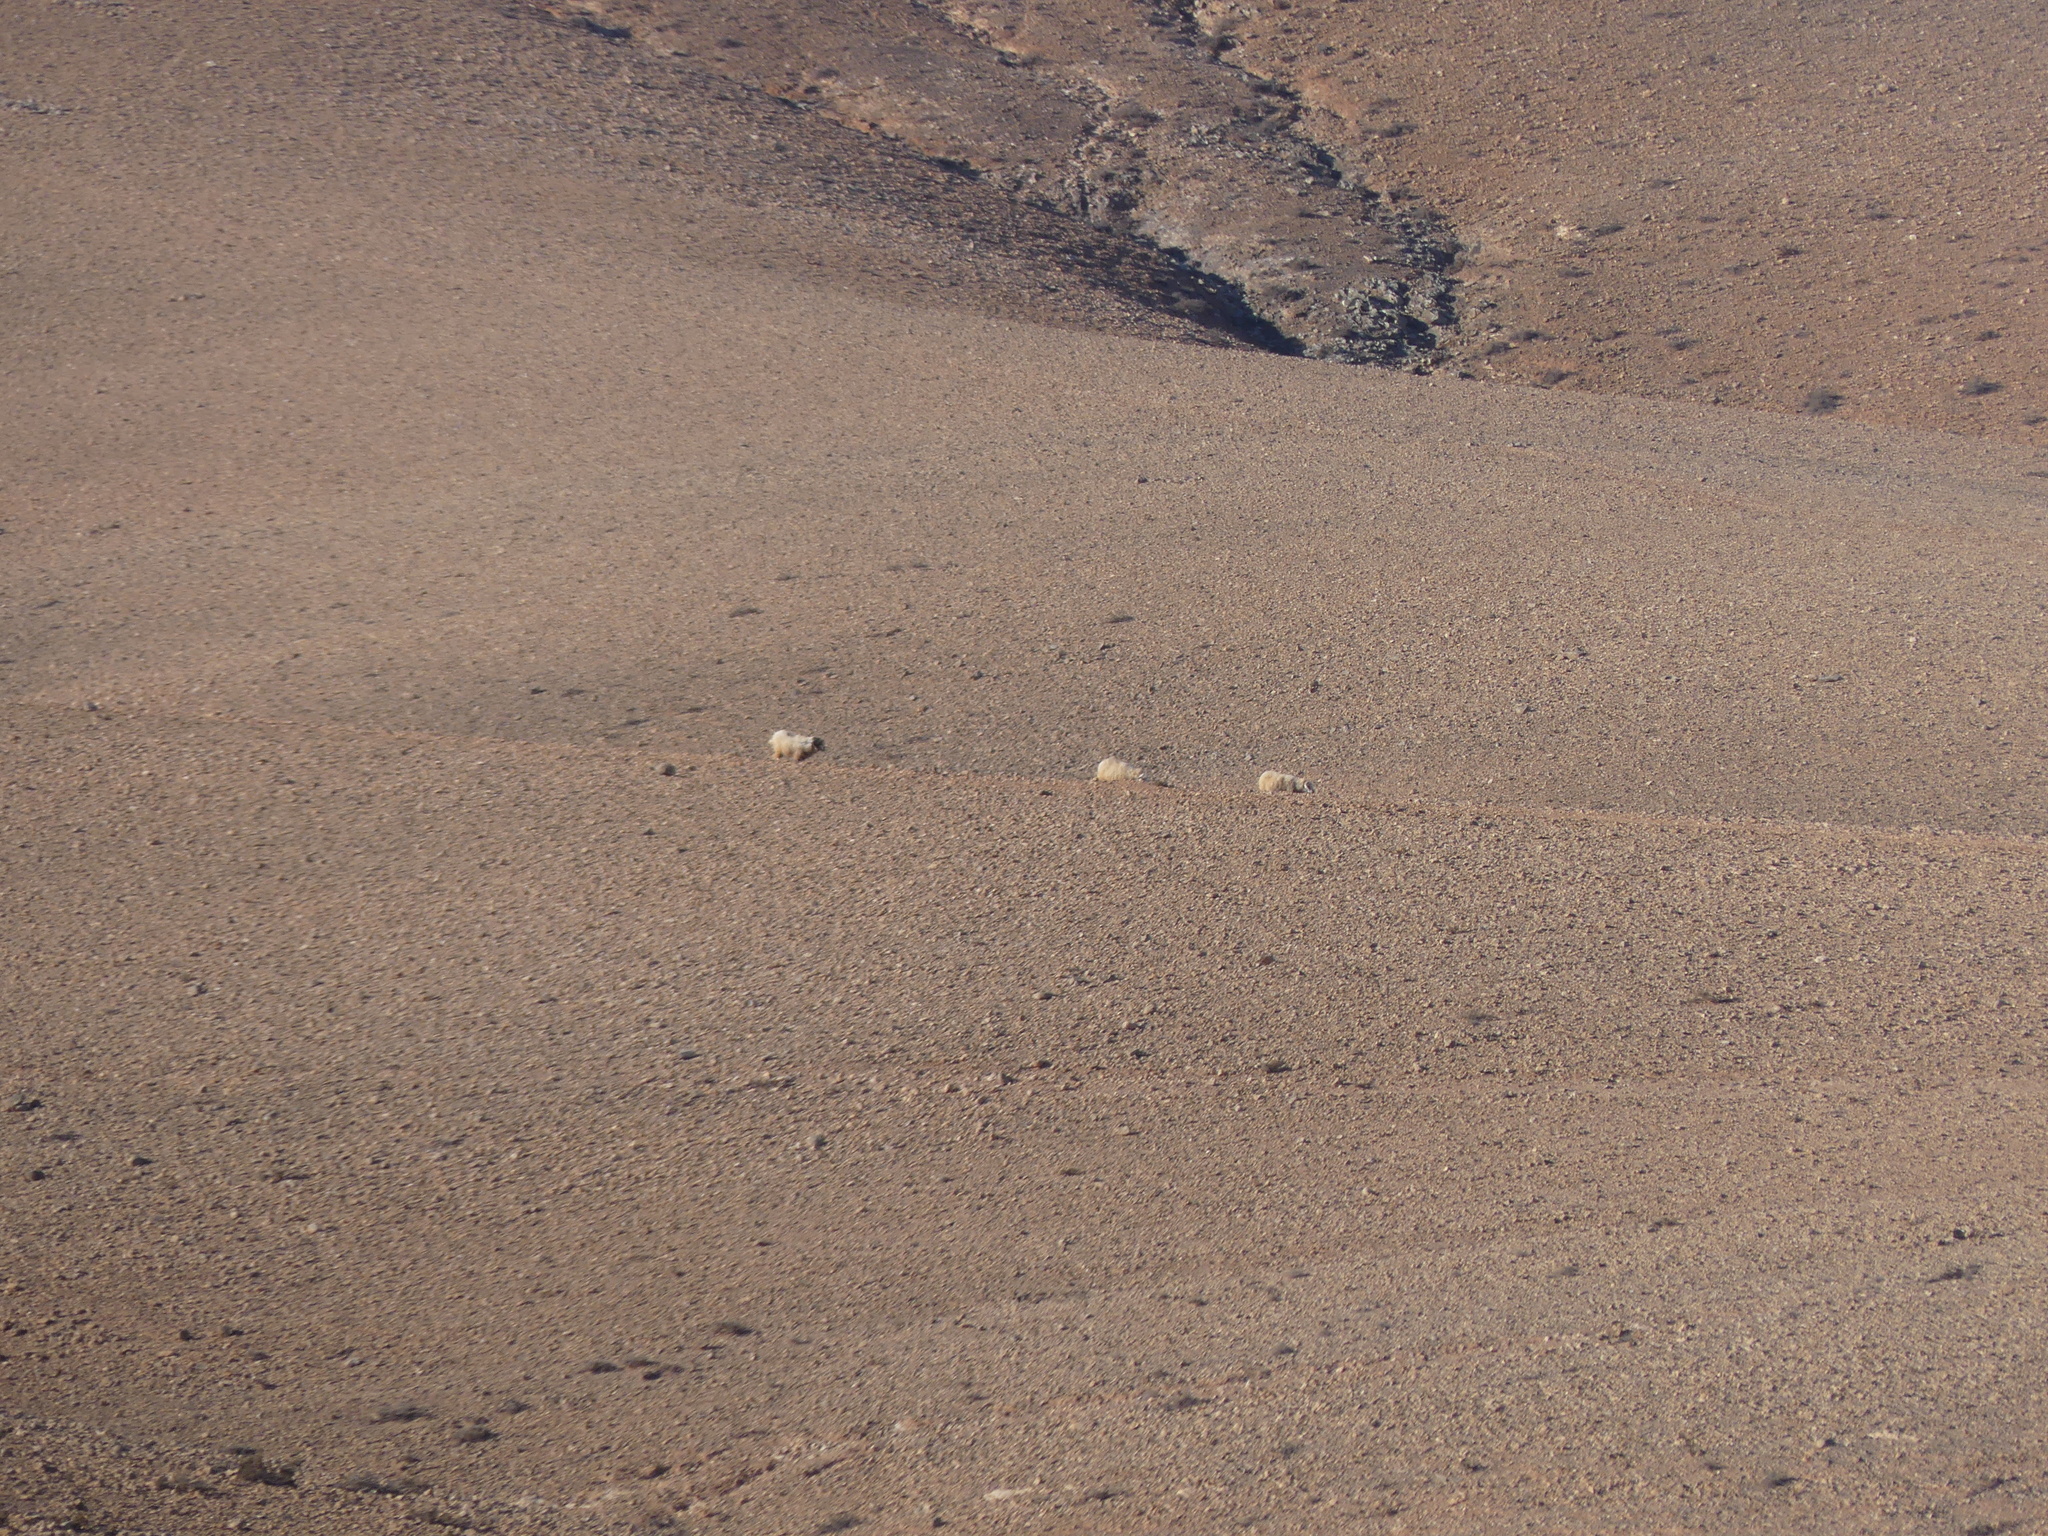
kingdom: Animalia
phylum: Chordata
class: Mammalia
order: Artiodactyla
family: Bovidae
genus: Ovis
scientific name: Ovis aries
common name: Domestic sheep
